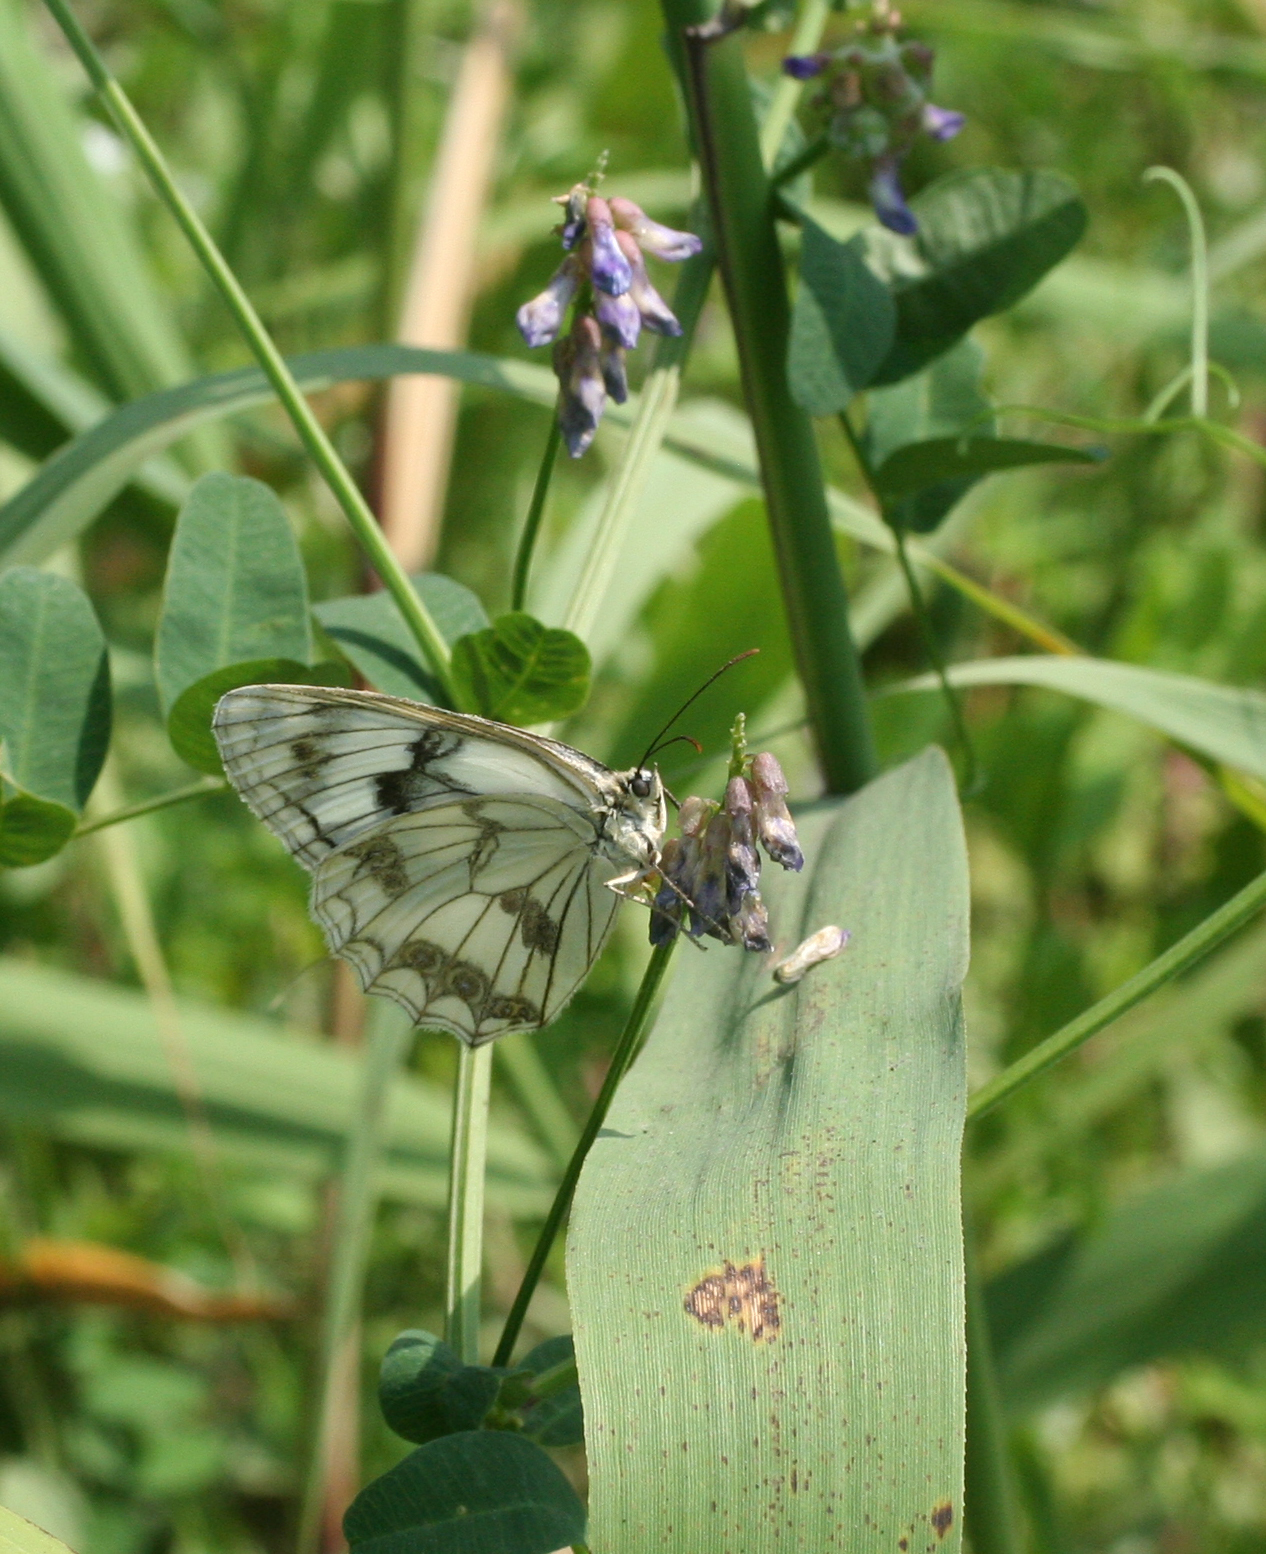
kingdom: Animalia
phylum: Arthropoda
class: Insecta
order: Lepidoptera
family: Nymphalidae
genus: Melanargia
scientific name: Melanargia halimede
